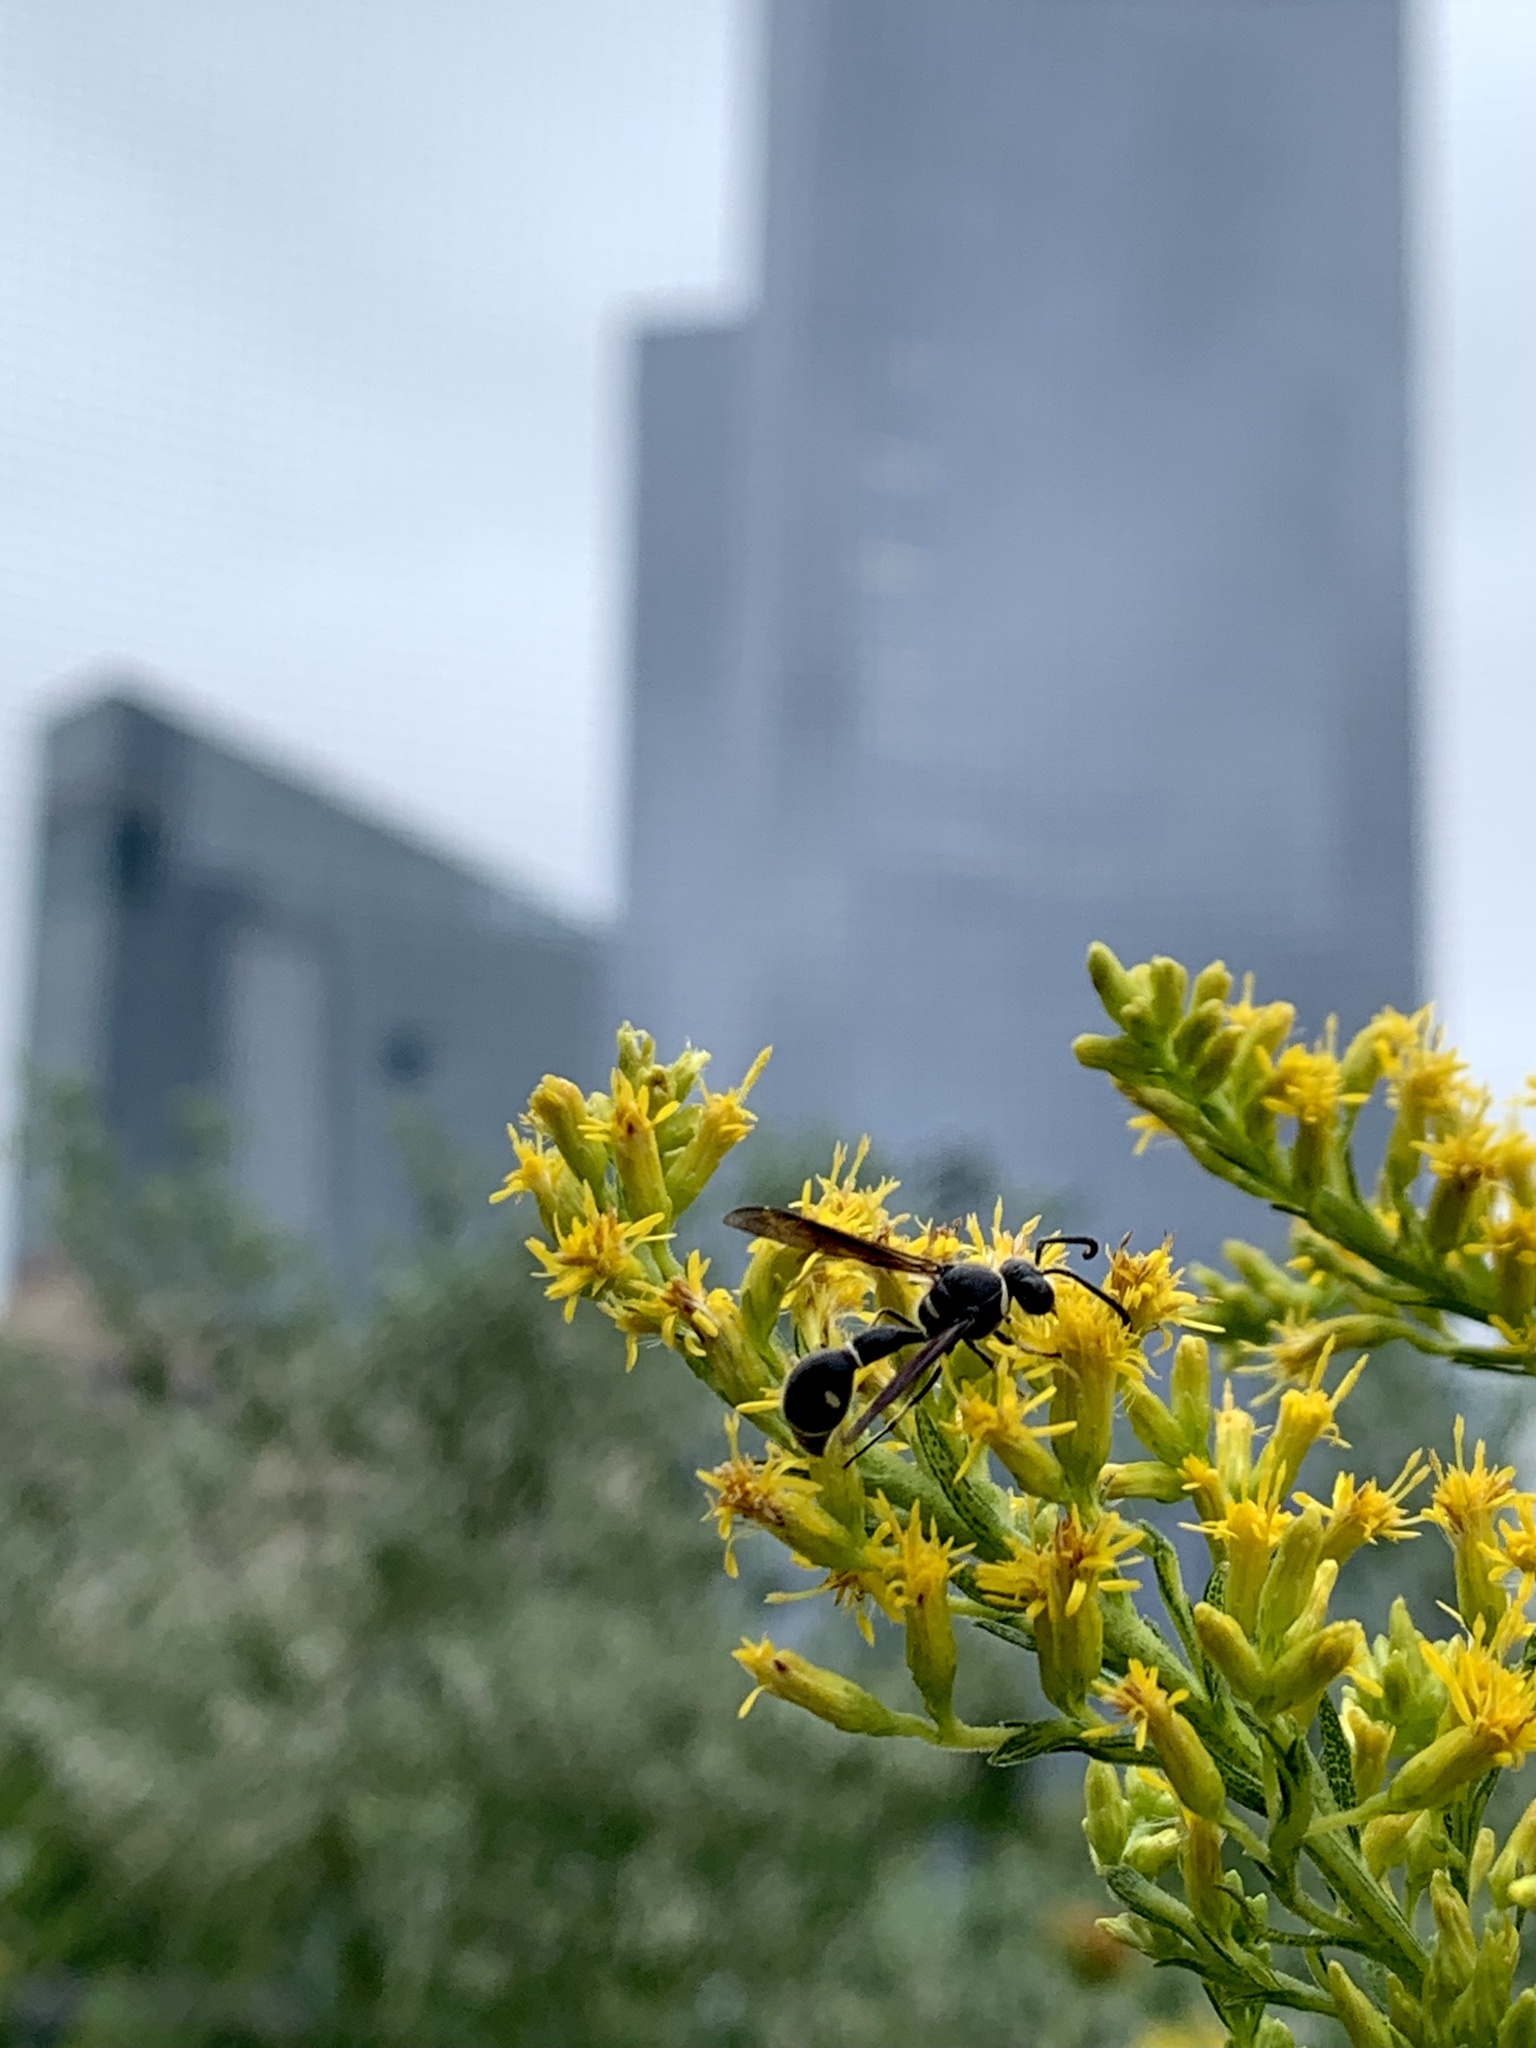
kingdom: Animalia
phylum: Arthropoda
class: Insecta
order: Hymenoptera
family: Vespidae
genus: Eumenes
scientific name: Eumenes fraternus
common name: Fraternal potter wasp
